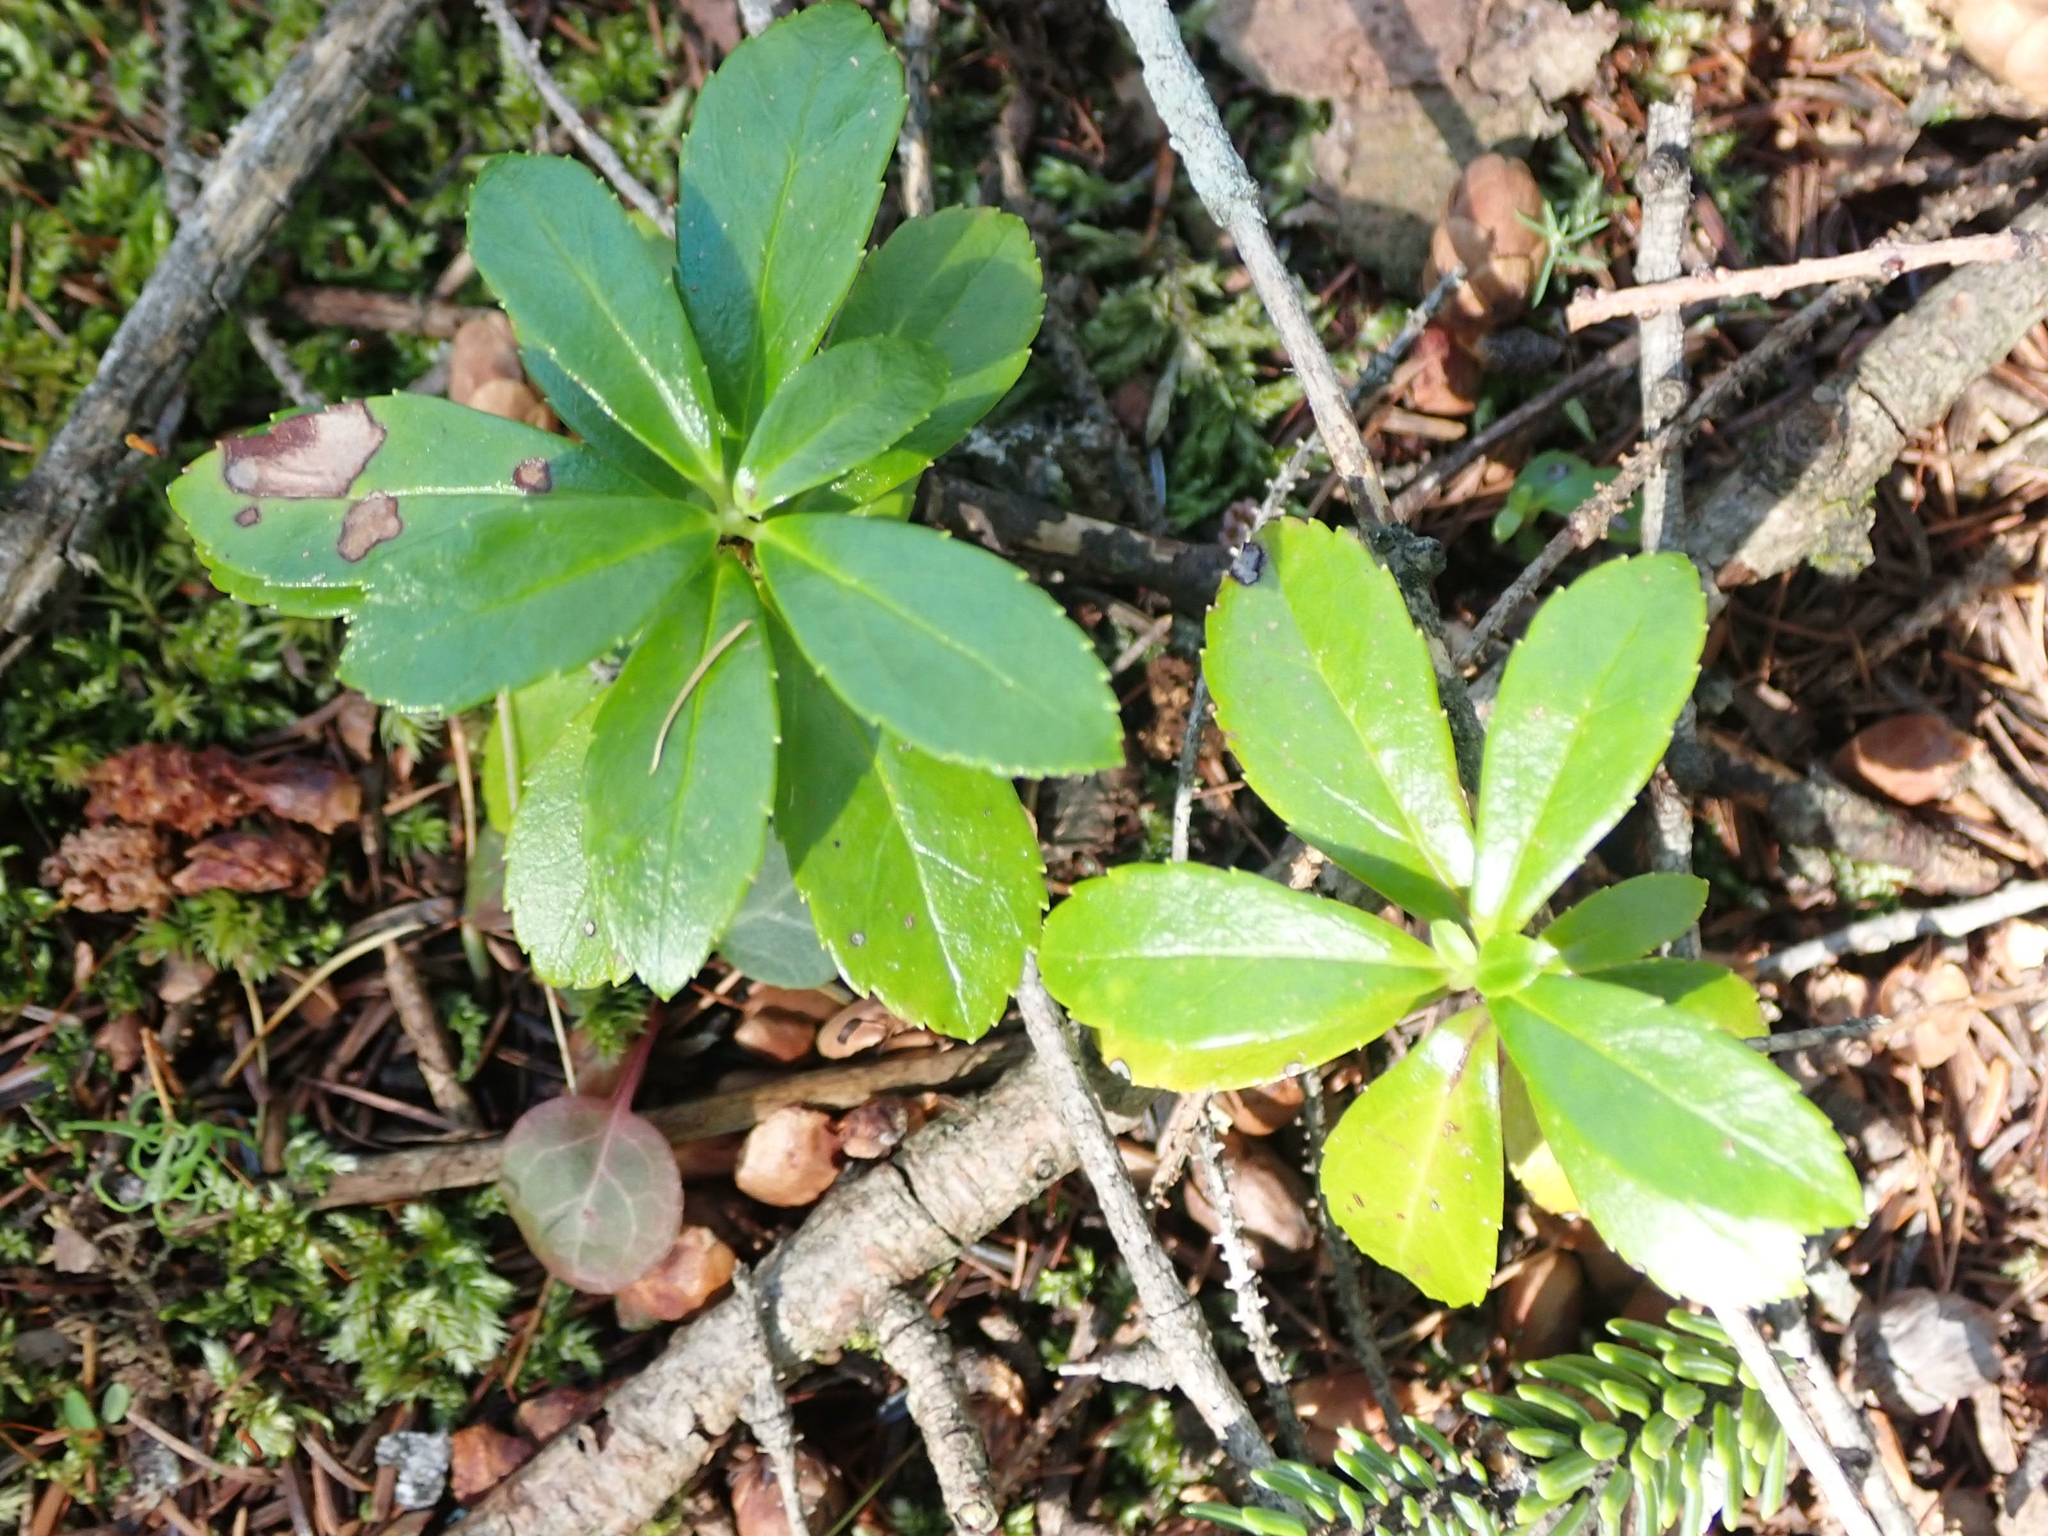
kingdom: Plantae
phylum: Tracheophyta
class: Magnoliopsida
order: Ericales
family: Ericaceae
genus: Chimaphila
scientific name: Chimaphila umbellata
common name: Pipsissewa
